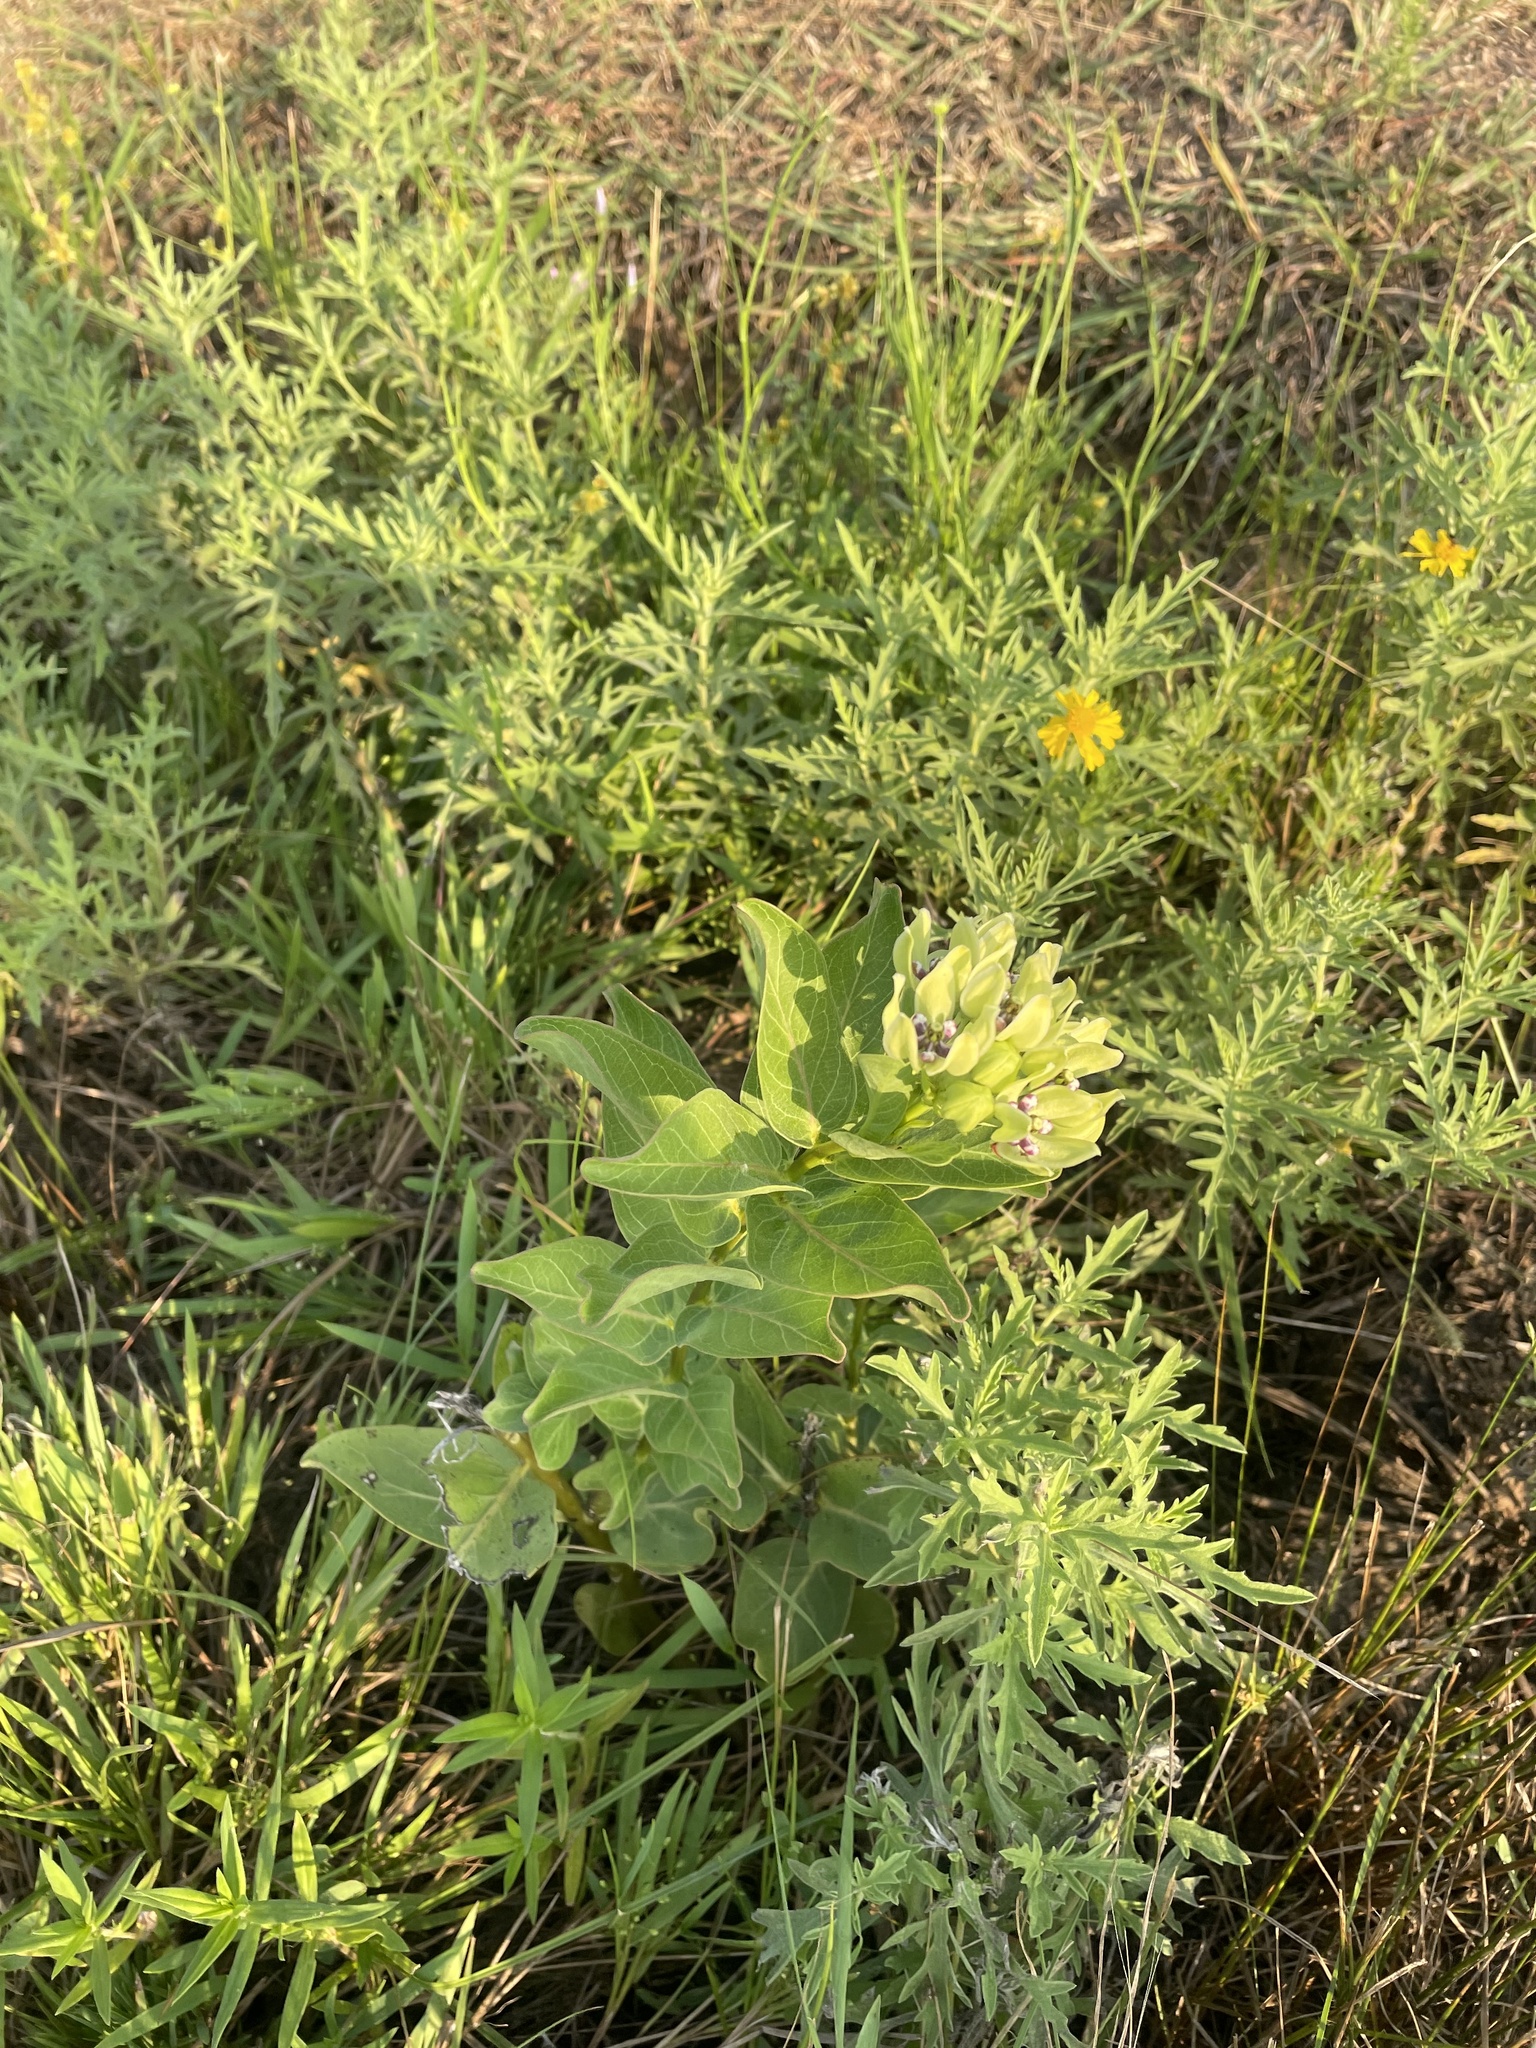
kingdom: Plantae
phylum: Tracheophyta
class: Magnoliopsida
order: Gentianales
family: Apocynaceae
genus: Asclepias
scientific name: Asclepias viridis
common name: Antelope-horns
